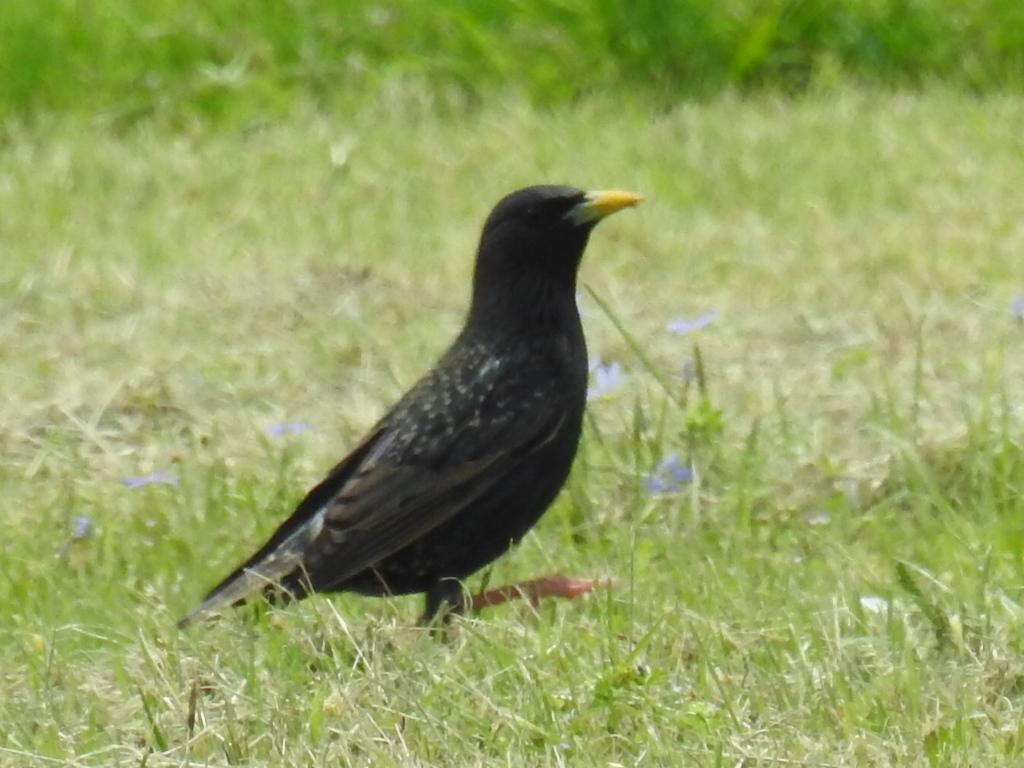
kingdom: Animalia
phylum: Chordata
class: Aves
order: Passeriformes
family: Sturnidae
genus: Sturnus
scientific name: Sturnus vulgaris
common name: Common starling
